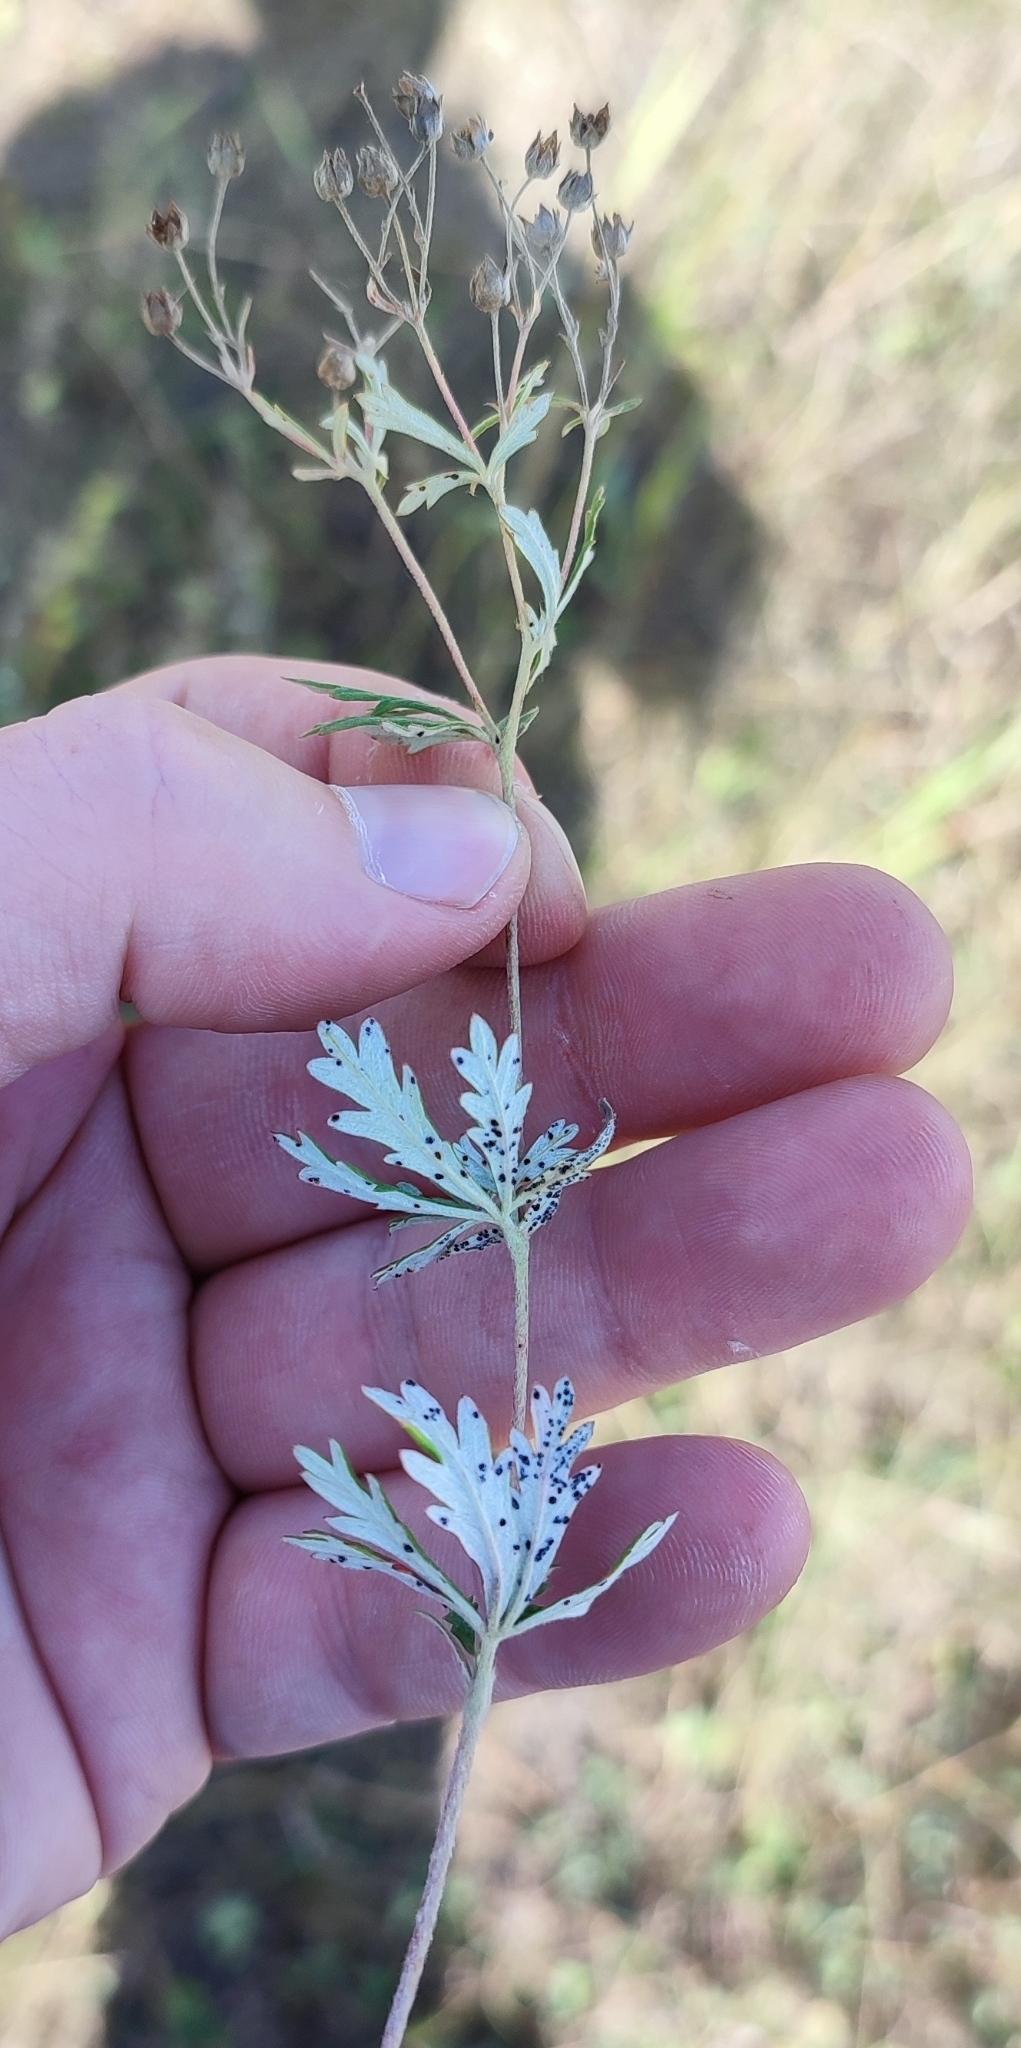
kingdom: Plantae
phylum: Tracheophyta
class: Magnoliopsida
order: Rosales
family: Rosaceae
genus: Potentilla
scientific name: Potentilla argentea
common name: Hoary cinquefoil
